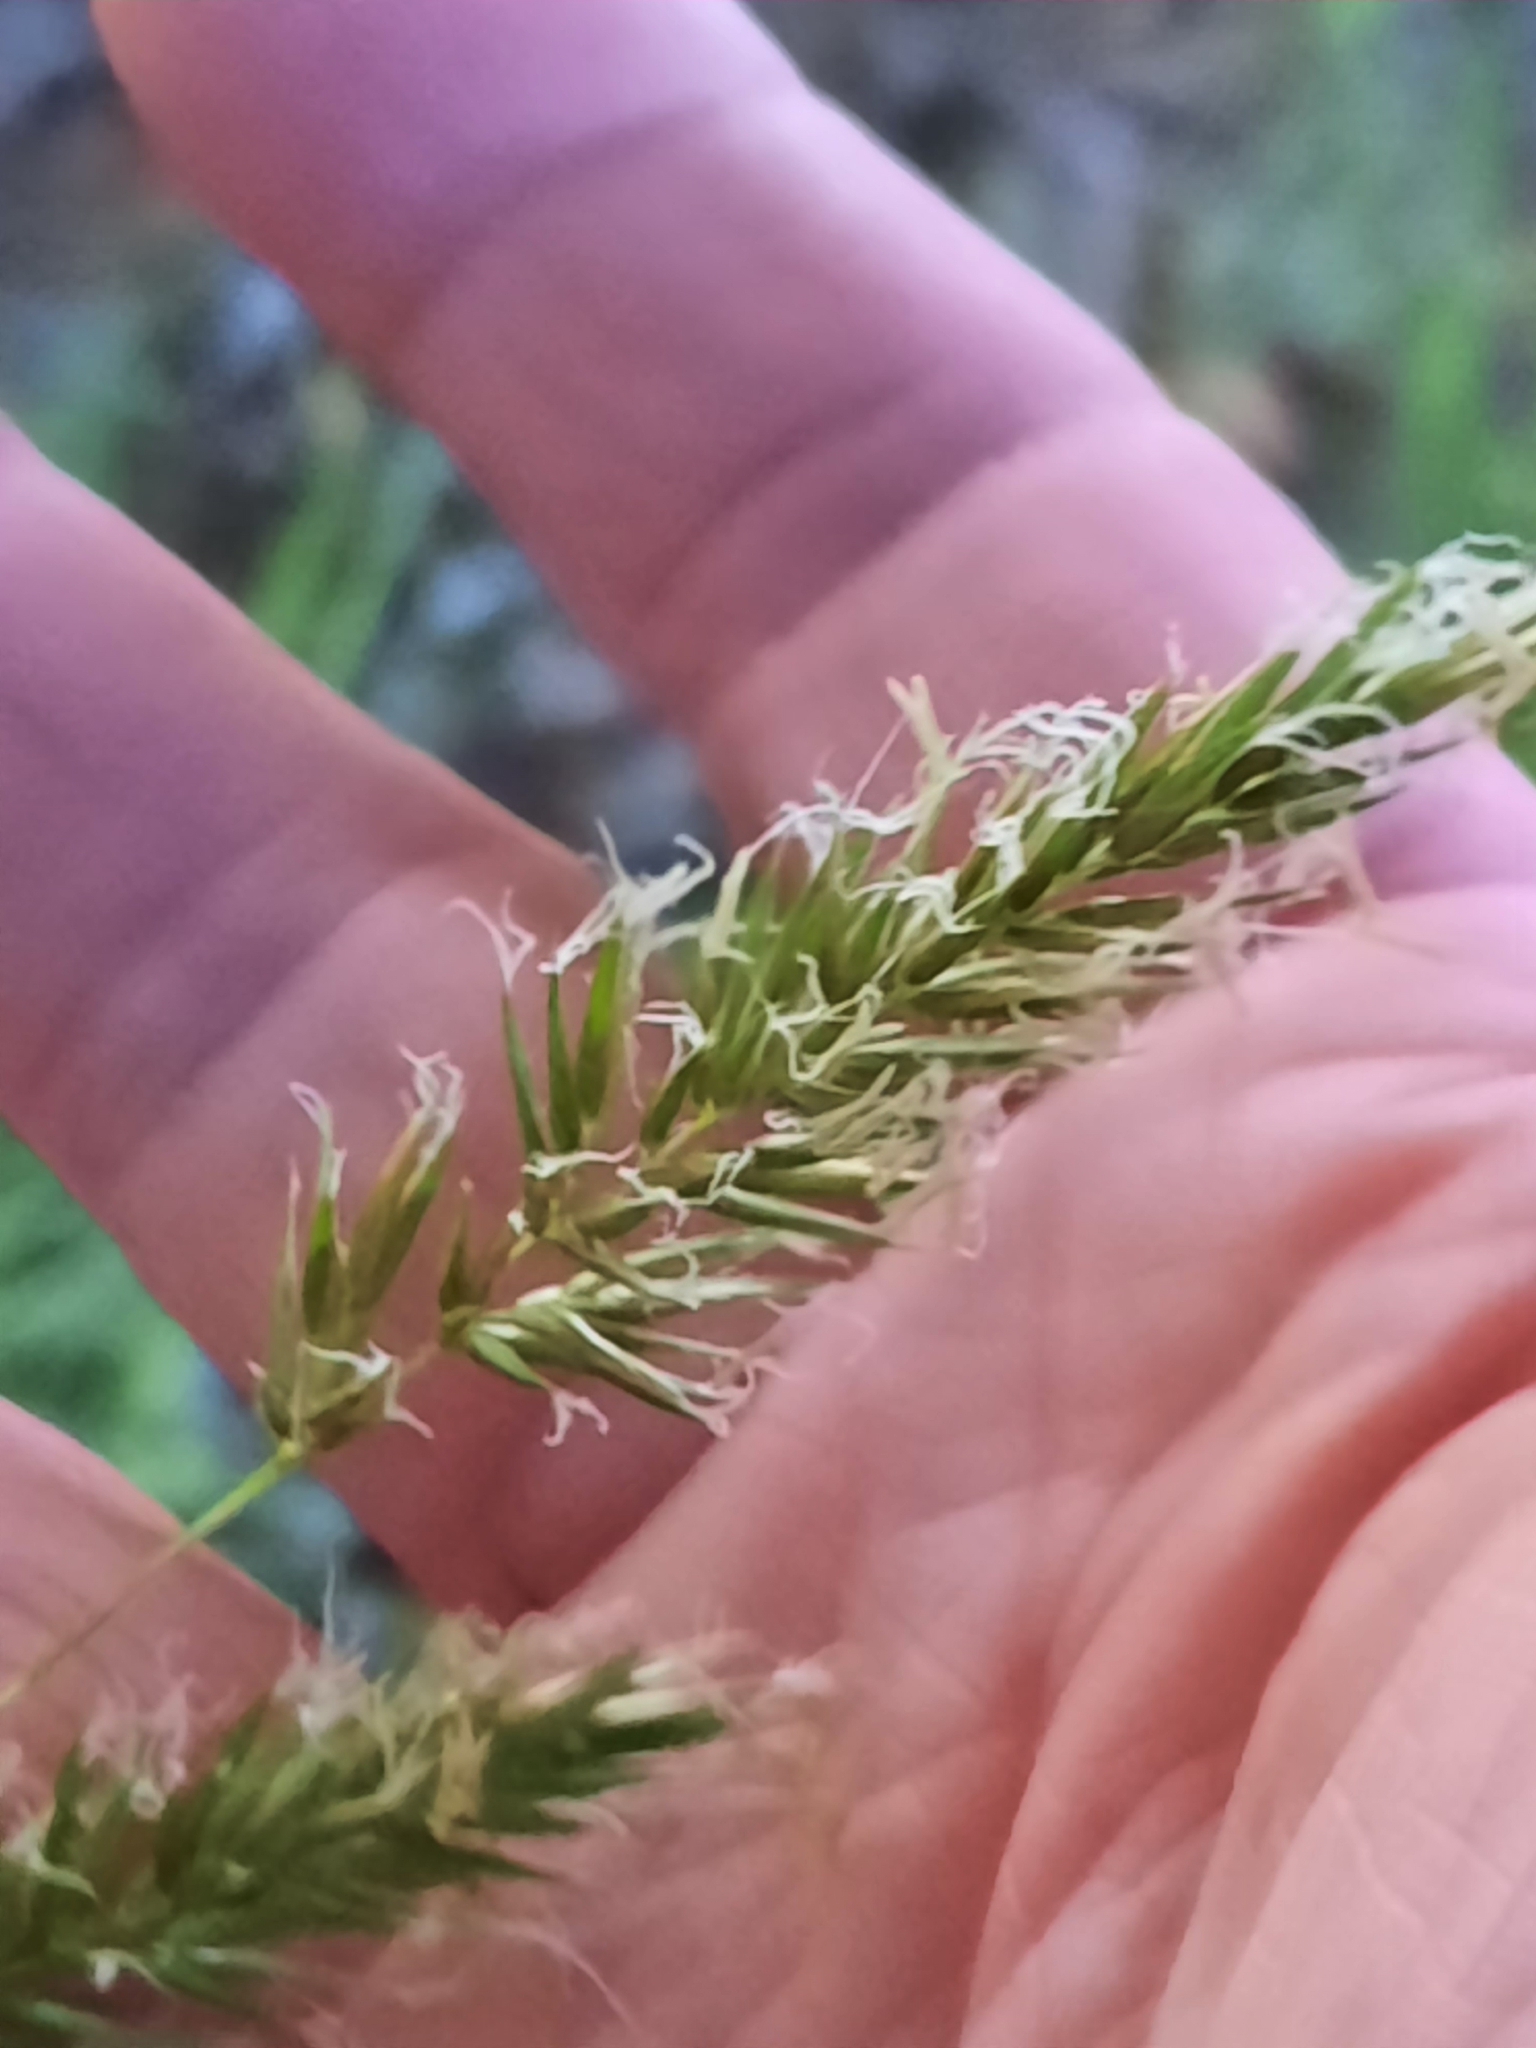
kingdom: Plantae
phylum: Tracheophyta
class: Liliopsida
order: Poales
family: Poaceae
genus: Anthoxanthum
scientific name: Anthoxanthum odoratum
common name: Sweet vernalgrass
